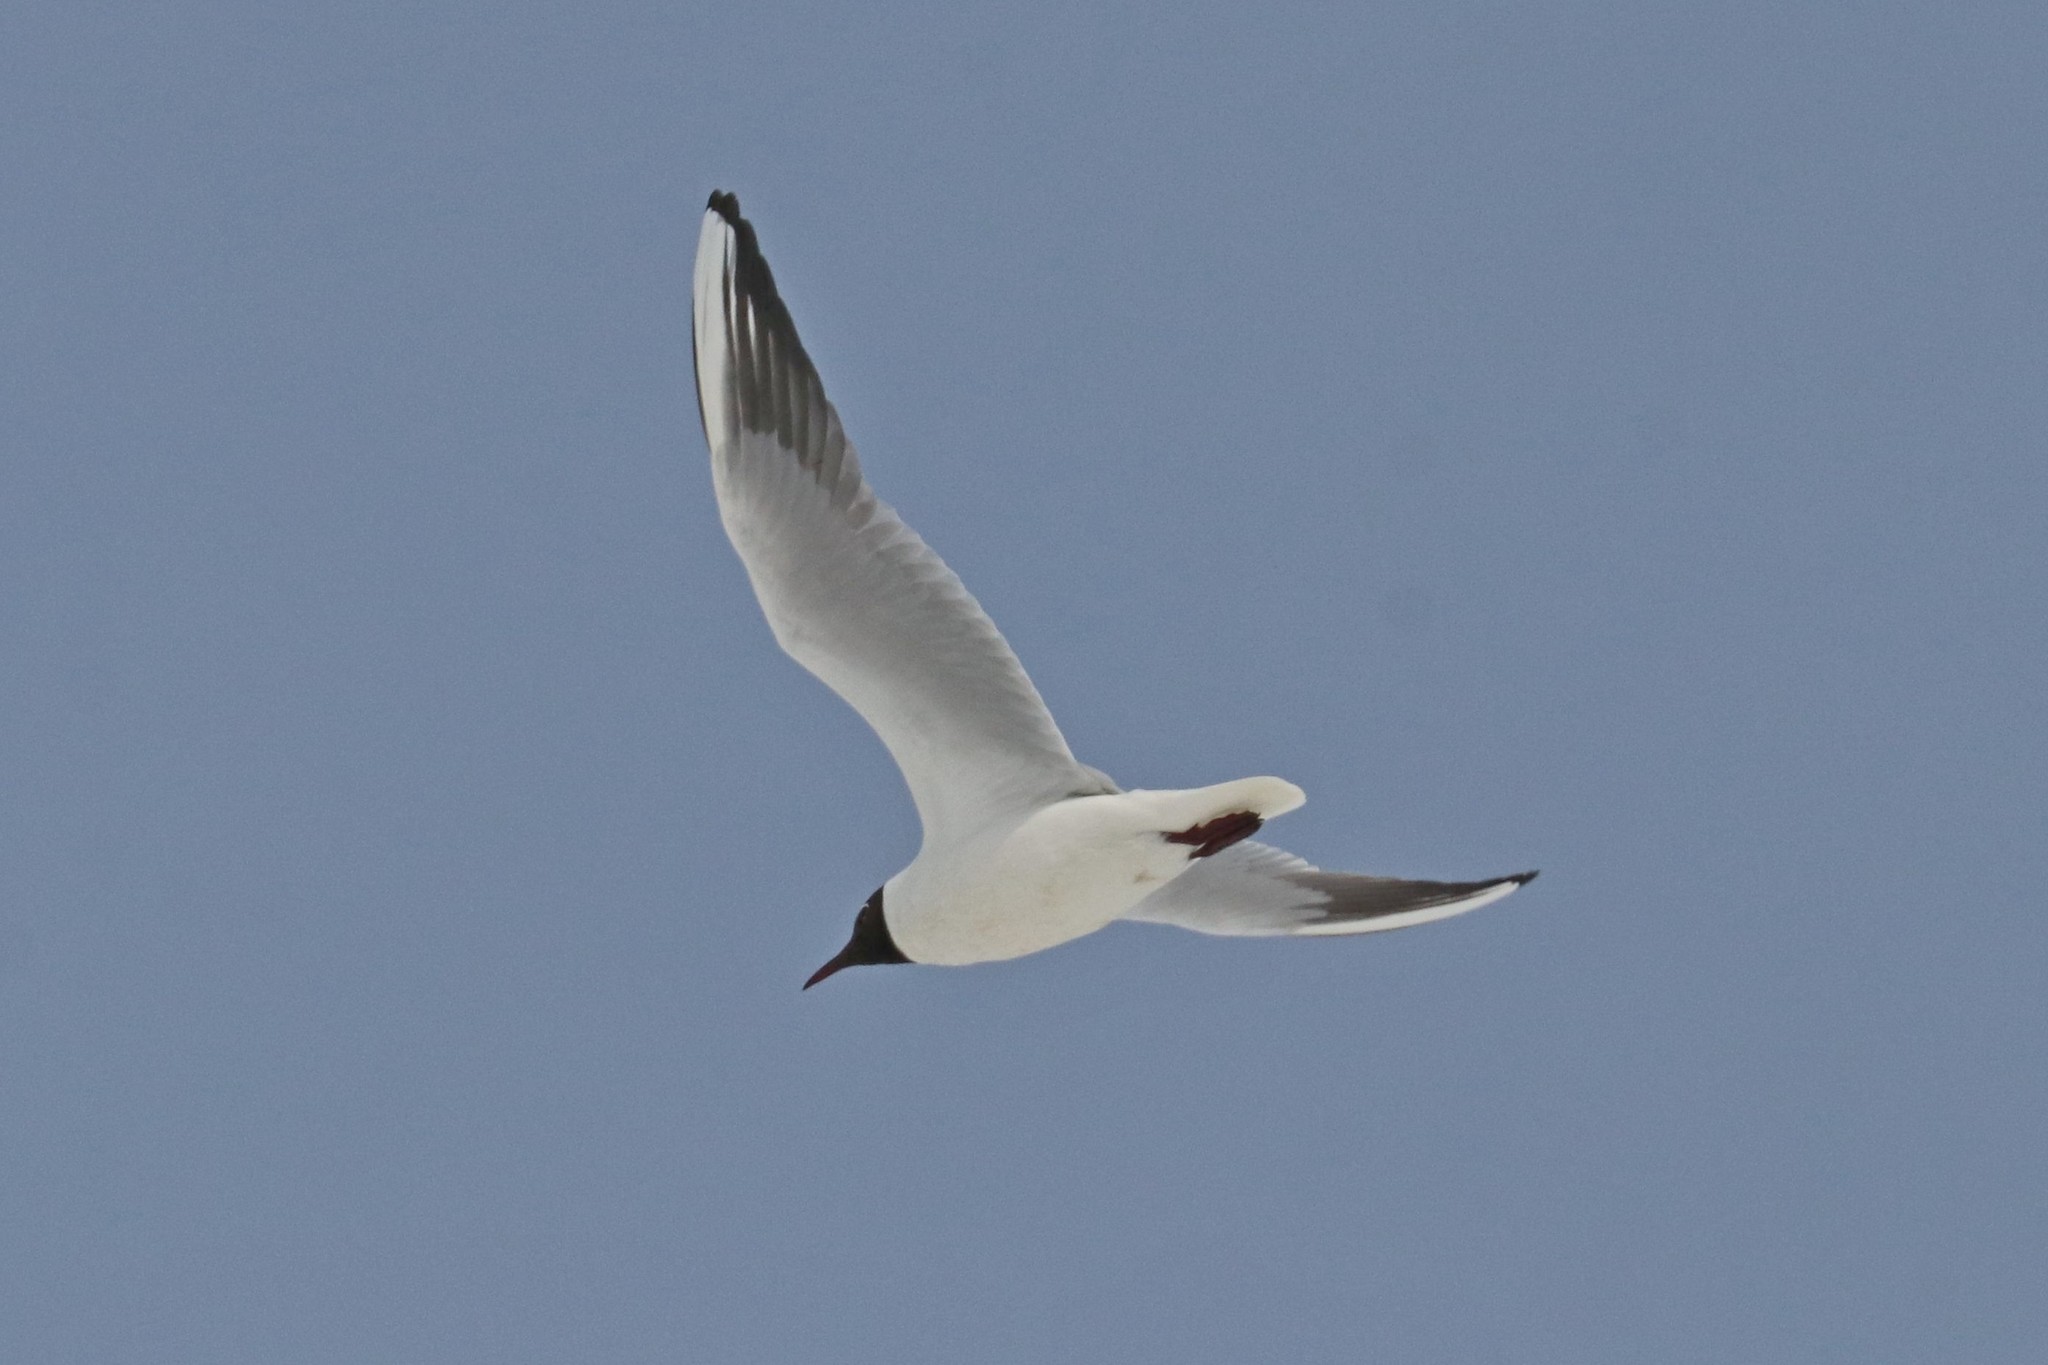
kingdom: Animalia
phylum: Chordata
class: Aves
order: Charadriiformes
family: Laridae
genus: Chroicocephalus
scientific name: Chroicocephalus ridibundus
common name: Black-headed gull
